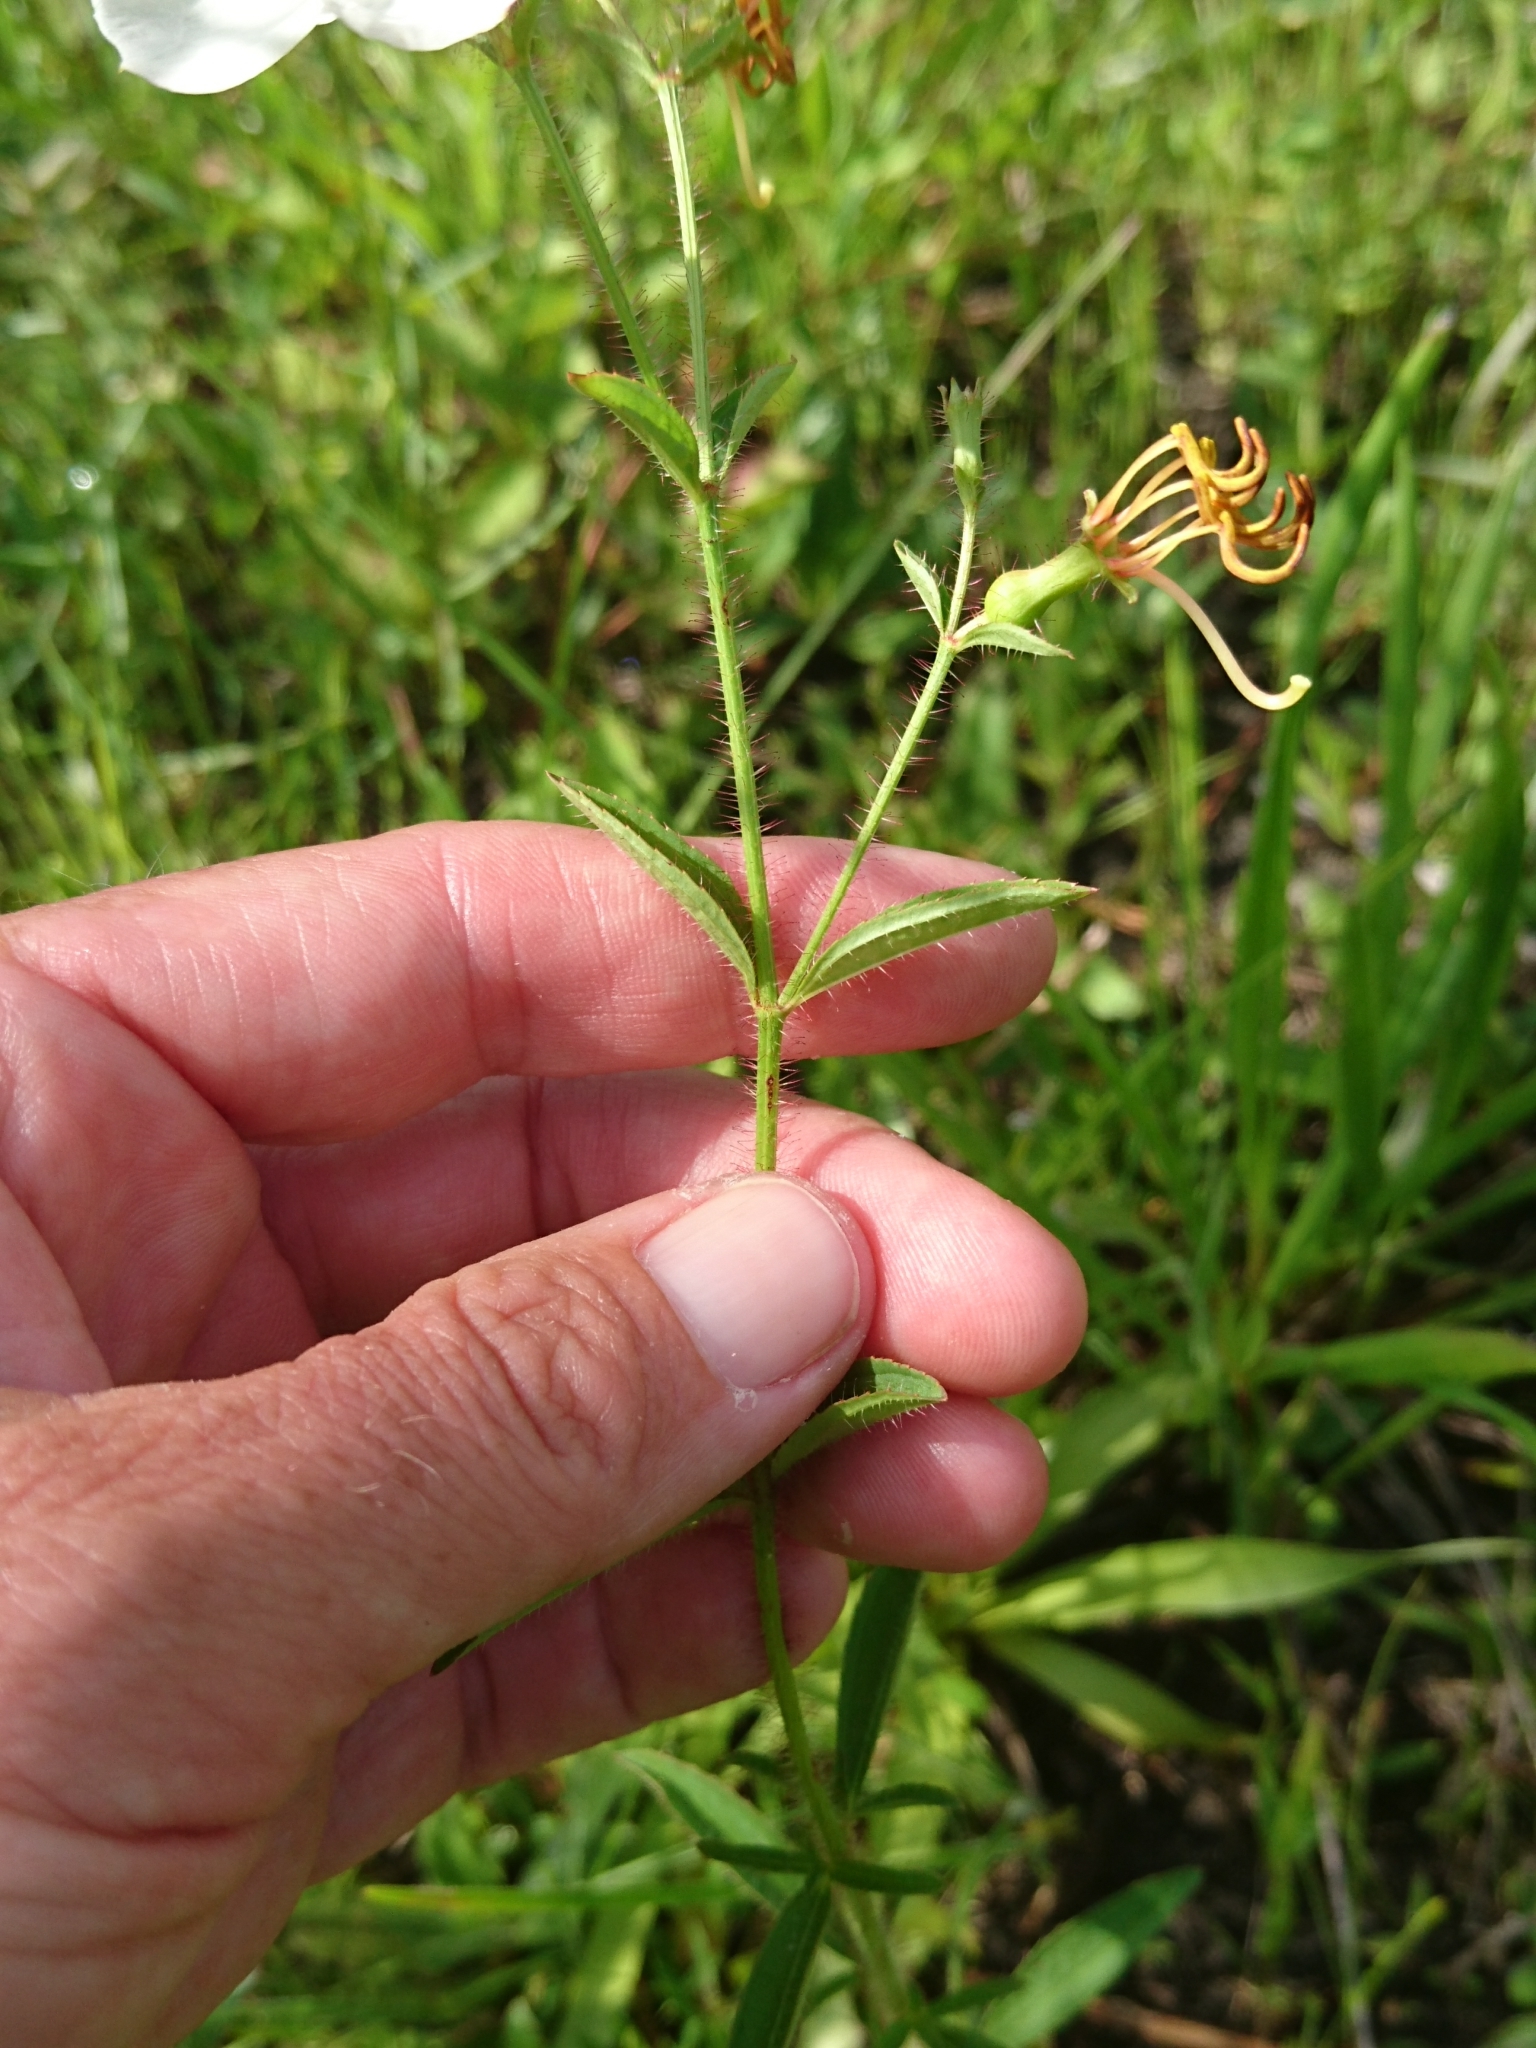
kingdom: Plantae
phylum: Tracheophyta
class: Magnoliopsida
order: Myrtales
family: Melastomataceae
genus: Rhexia
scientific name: Rhexia mariana
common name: Dull meadow-pitcher
